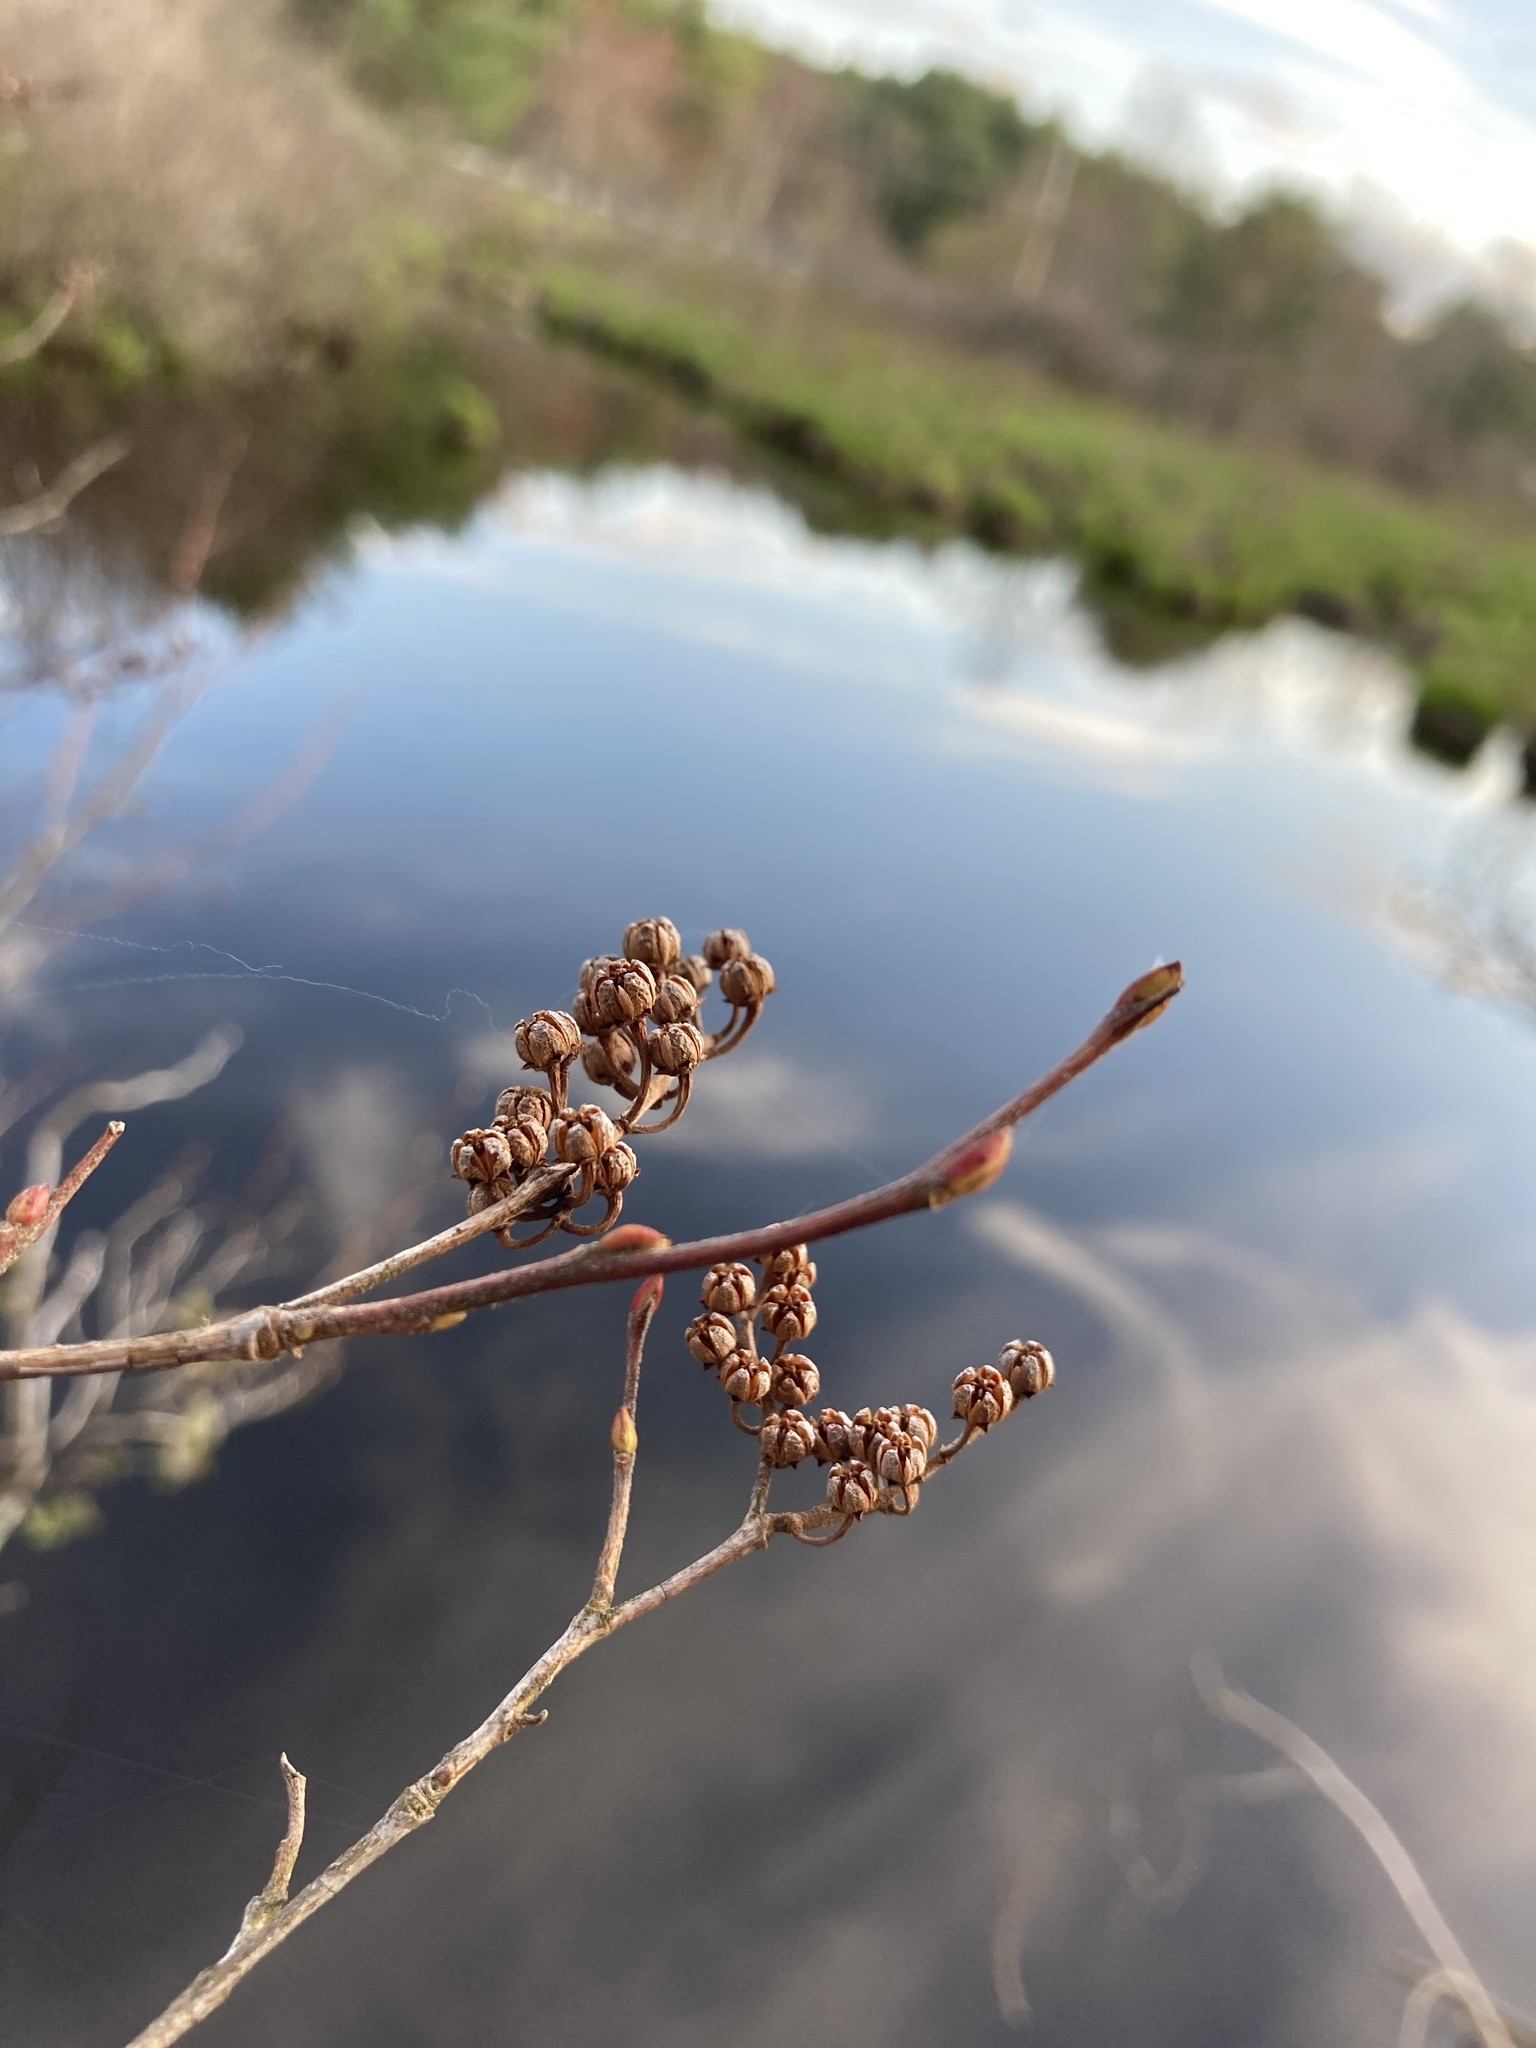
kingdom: Plantae
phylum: Tracheophyta
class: Magnoliopsida
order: Ericales
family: Ericaceae
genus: Lyonia
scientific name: Lyonia ligustrina
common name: Maleberry
